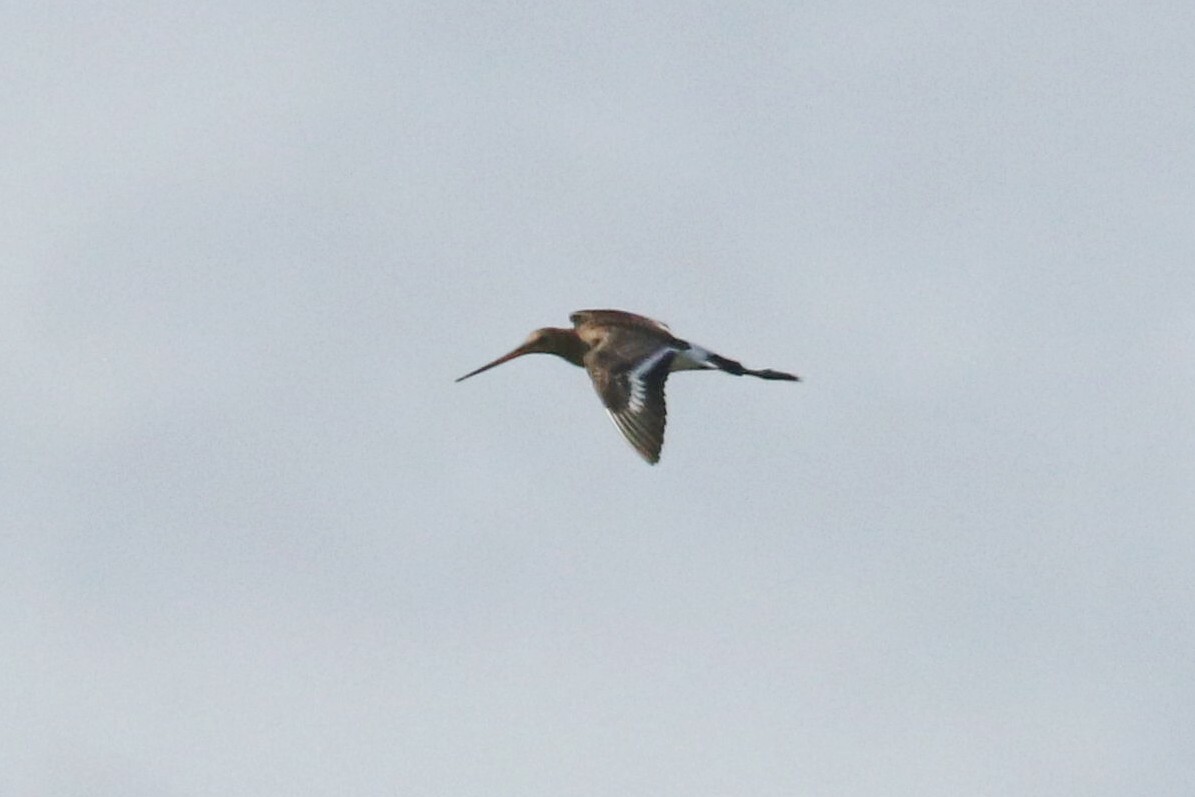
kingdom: Animalia
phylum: Chordata
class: Aves
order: Charadriiformes
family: Scolopacidae
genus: Limosa
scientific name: Limosa limosa
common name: Black-tailed godwit
